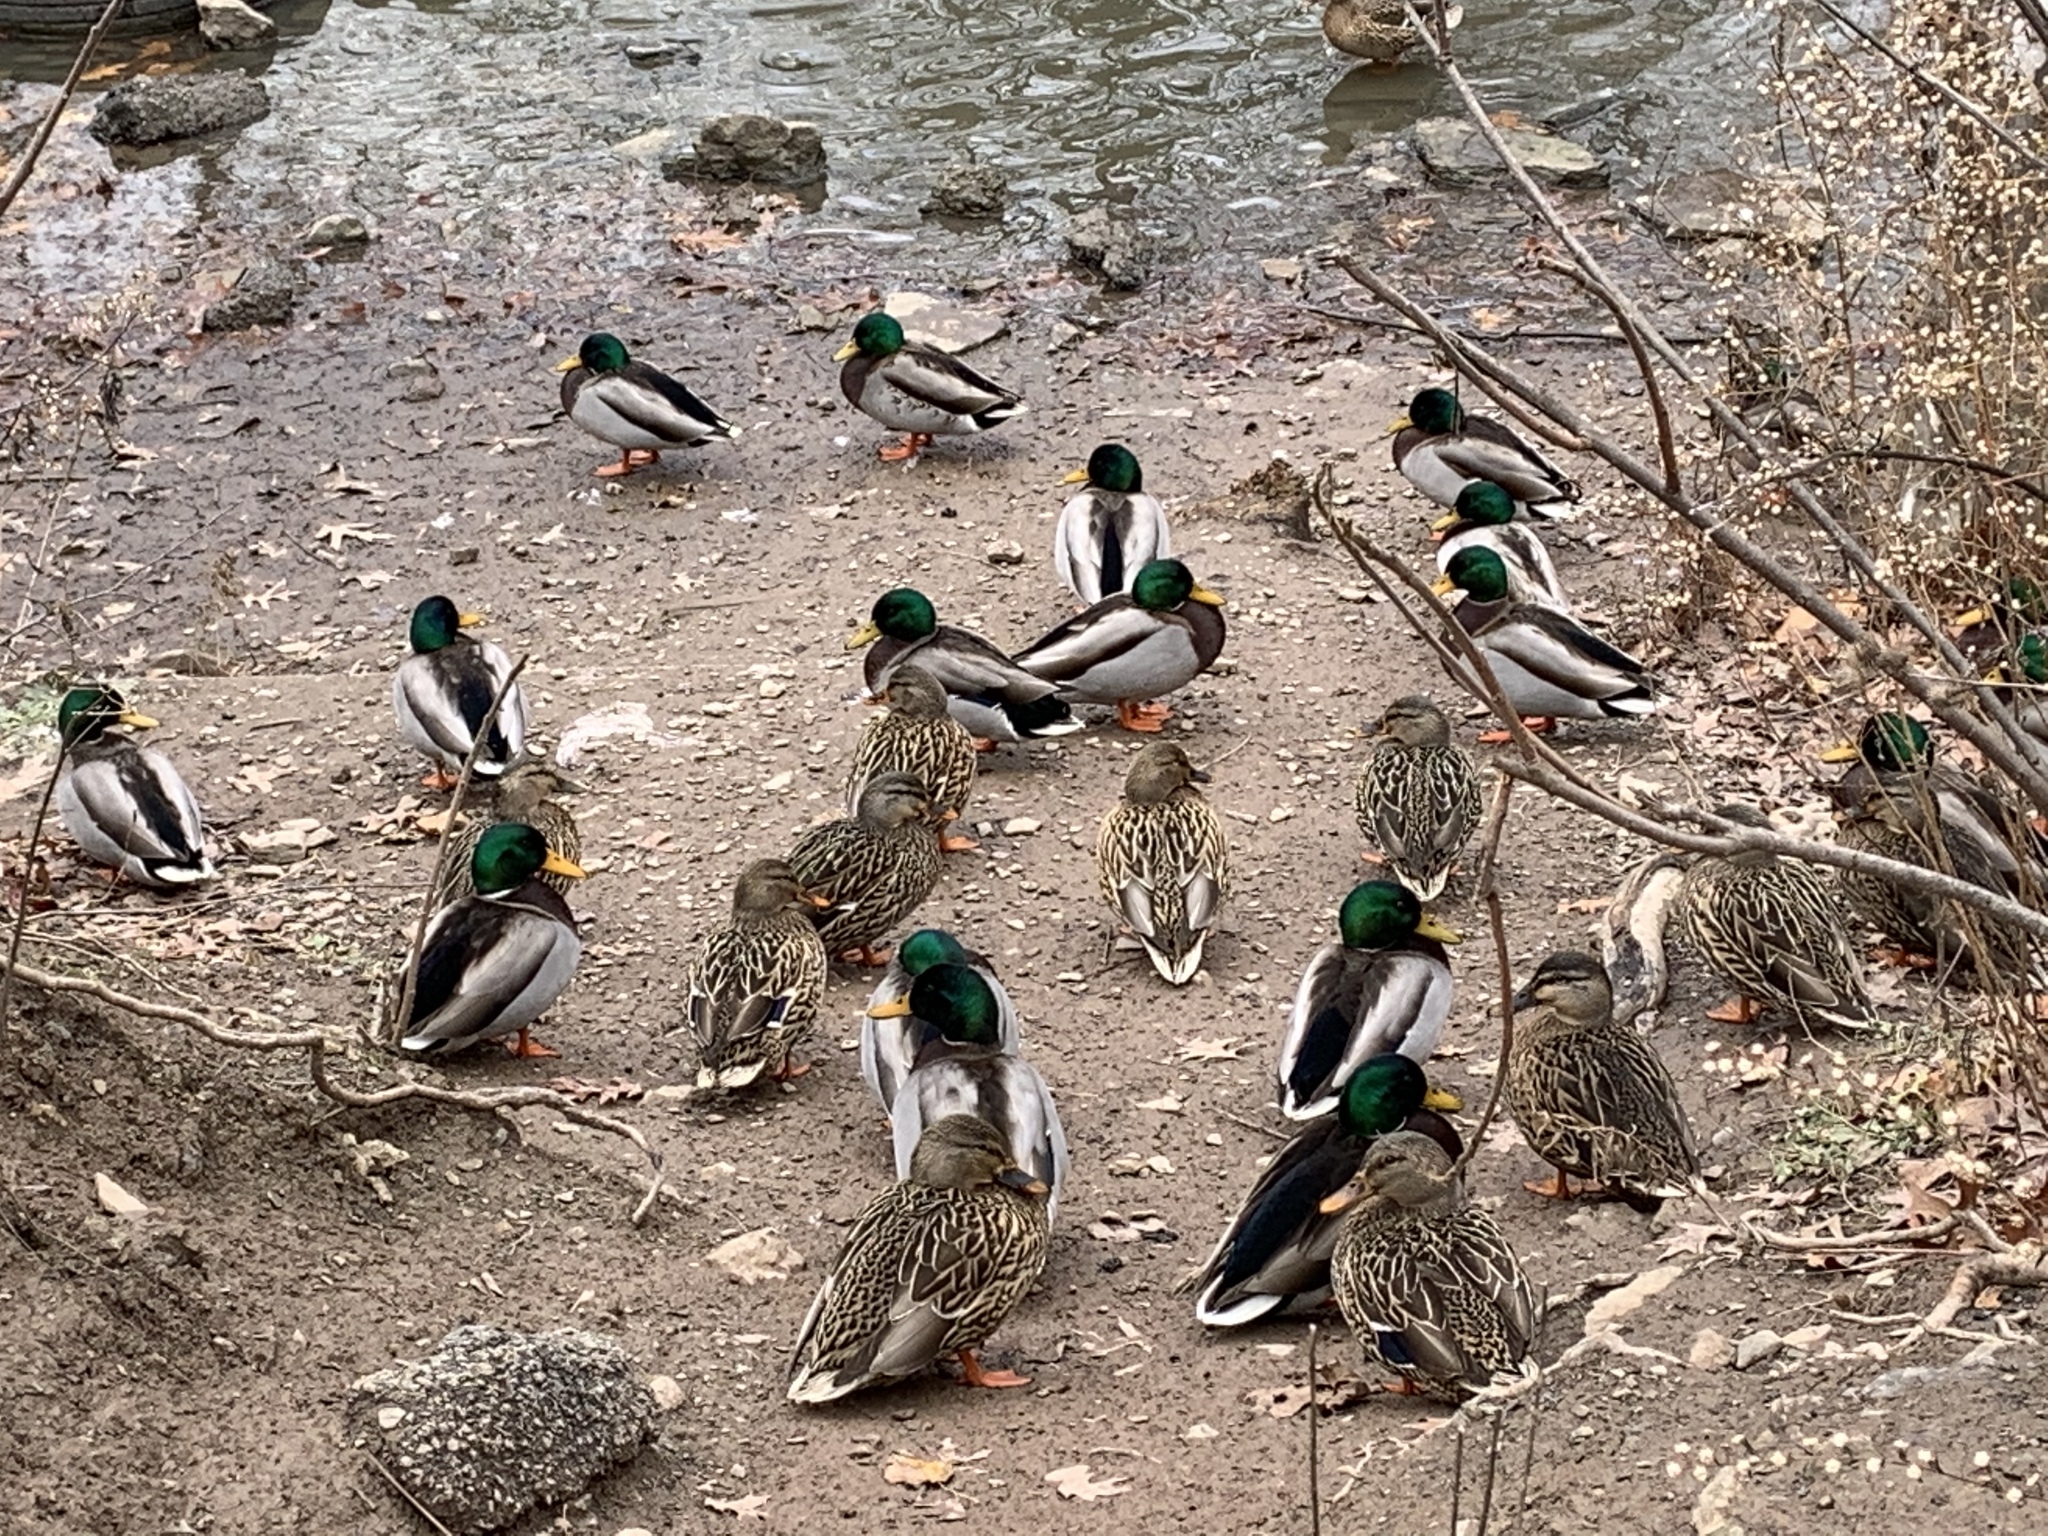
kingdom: Animalia
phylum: Chordata
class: Aves
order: Anseriformes
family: Anatidae
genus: Anas
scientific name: Anas platyrhynchos
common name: Mallard
